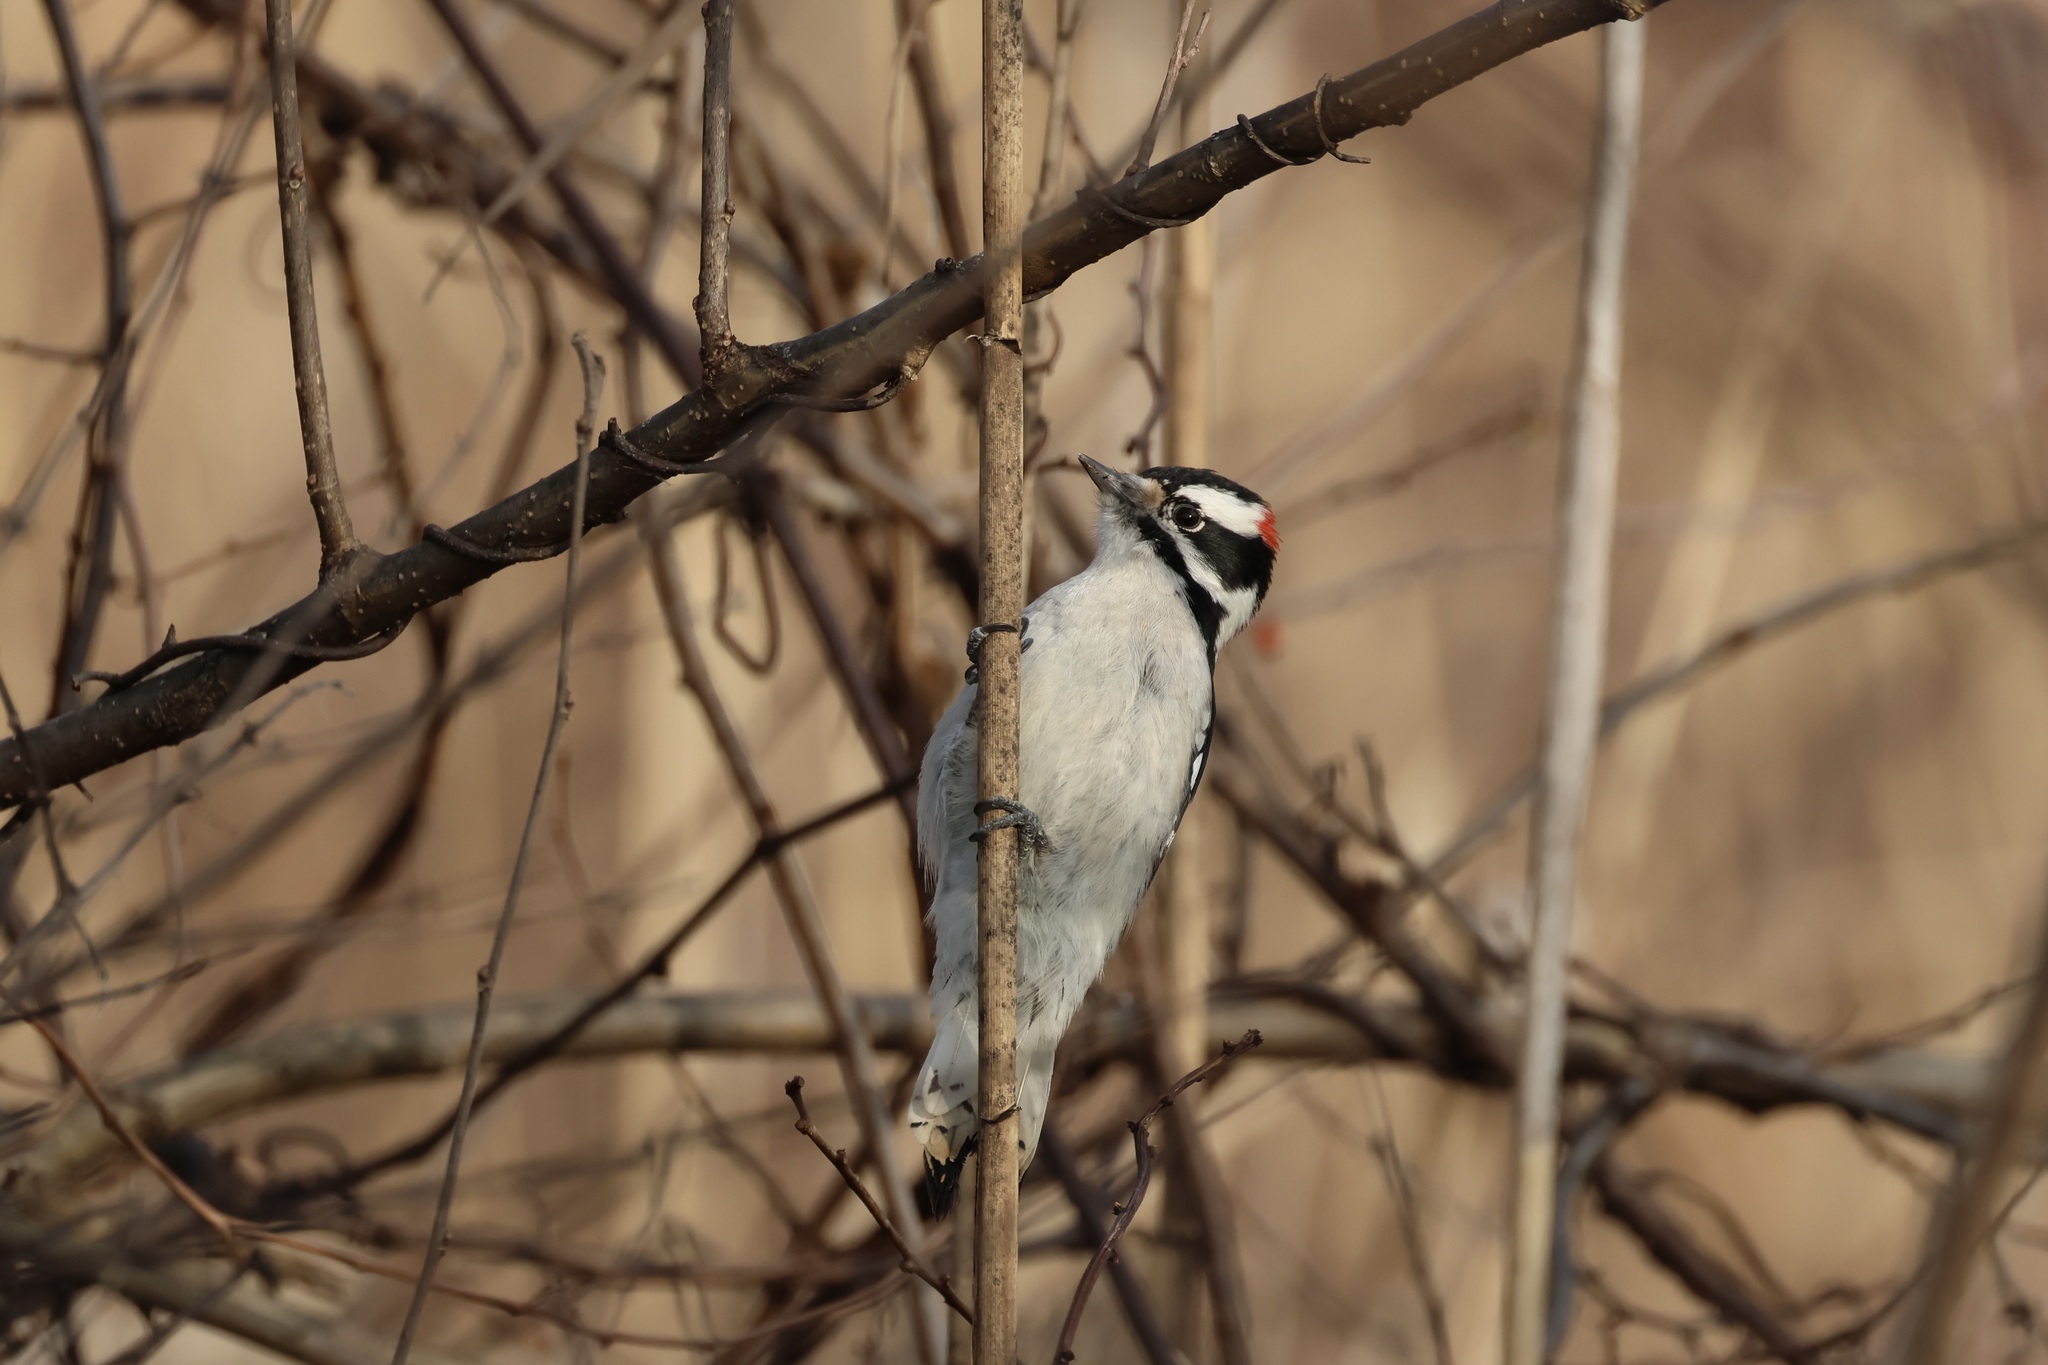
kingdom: Animalia
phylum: Chordata
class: Aves
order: Piciformes
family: Picidae
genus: Dryobates
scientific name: Dryobates pubescens
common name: Downy woodpecker
